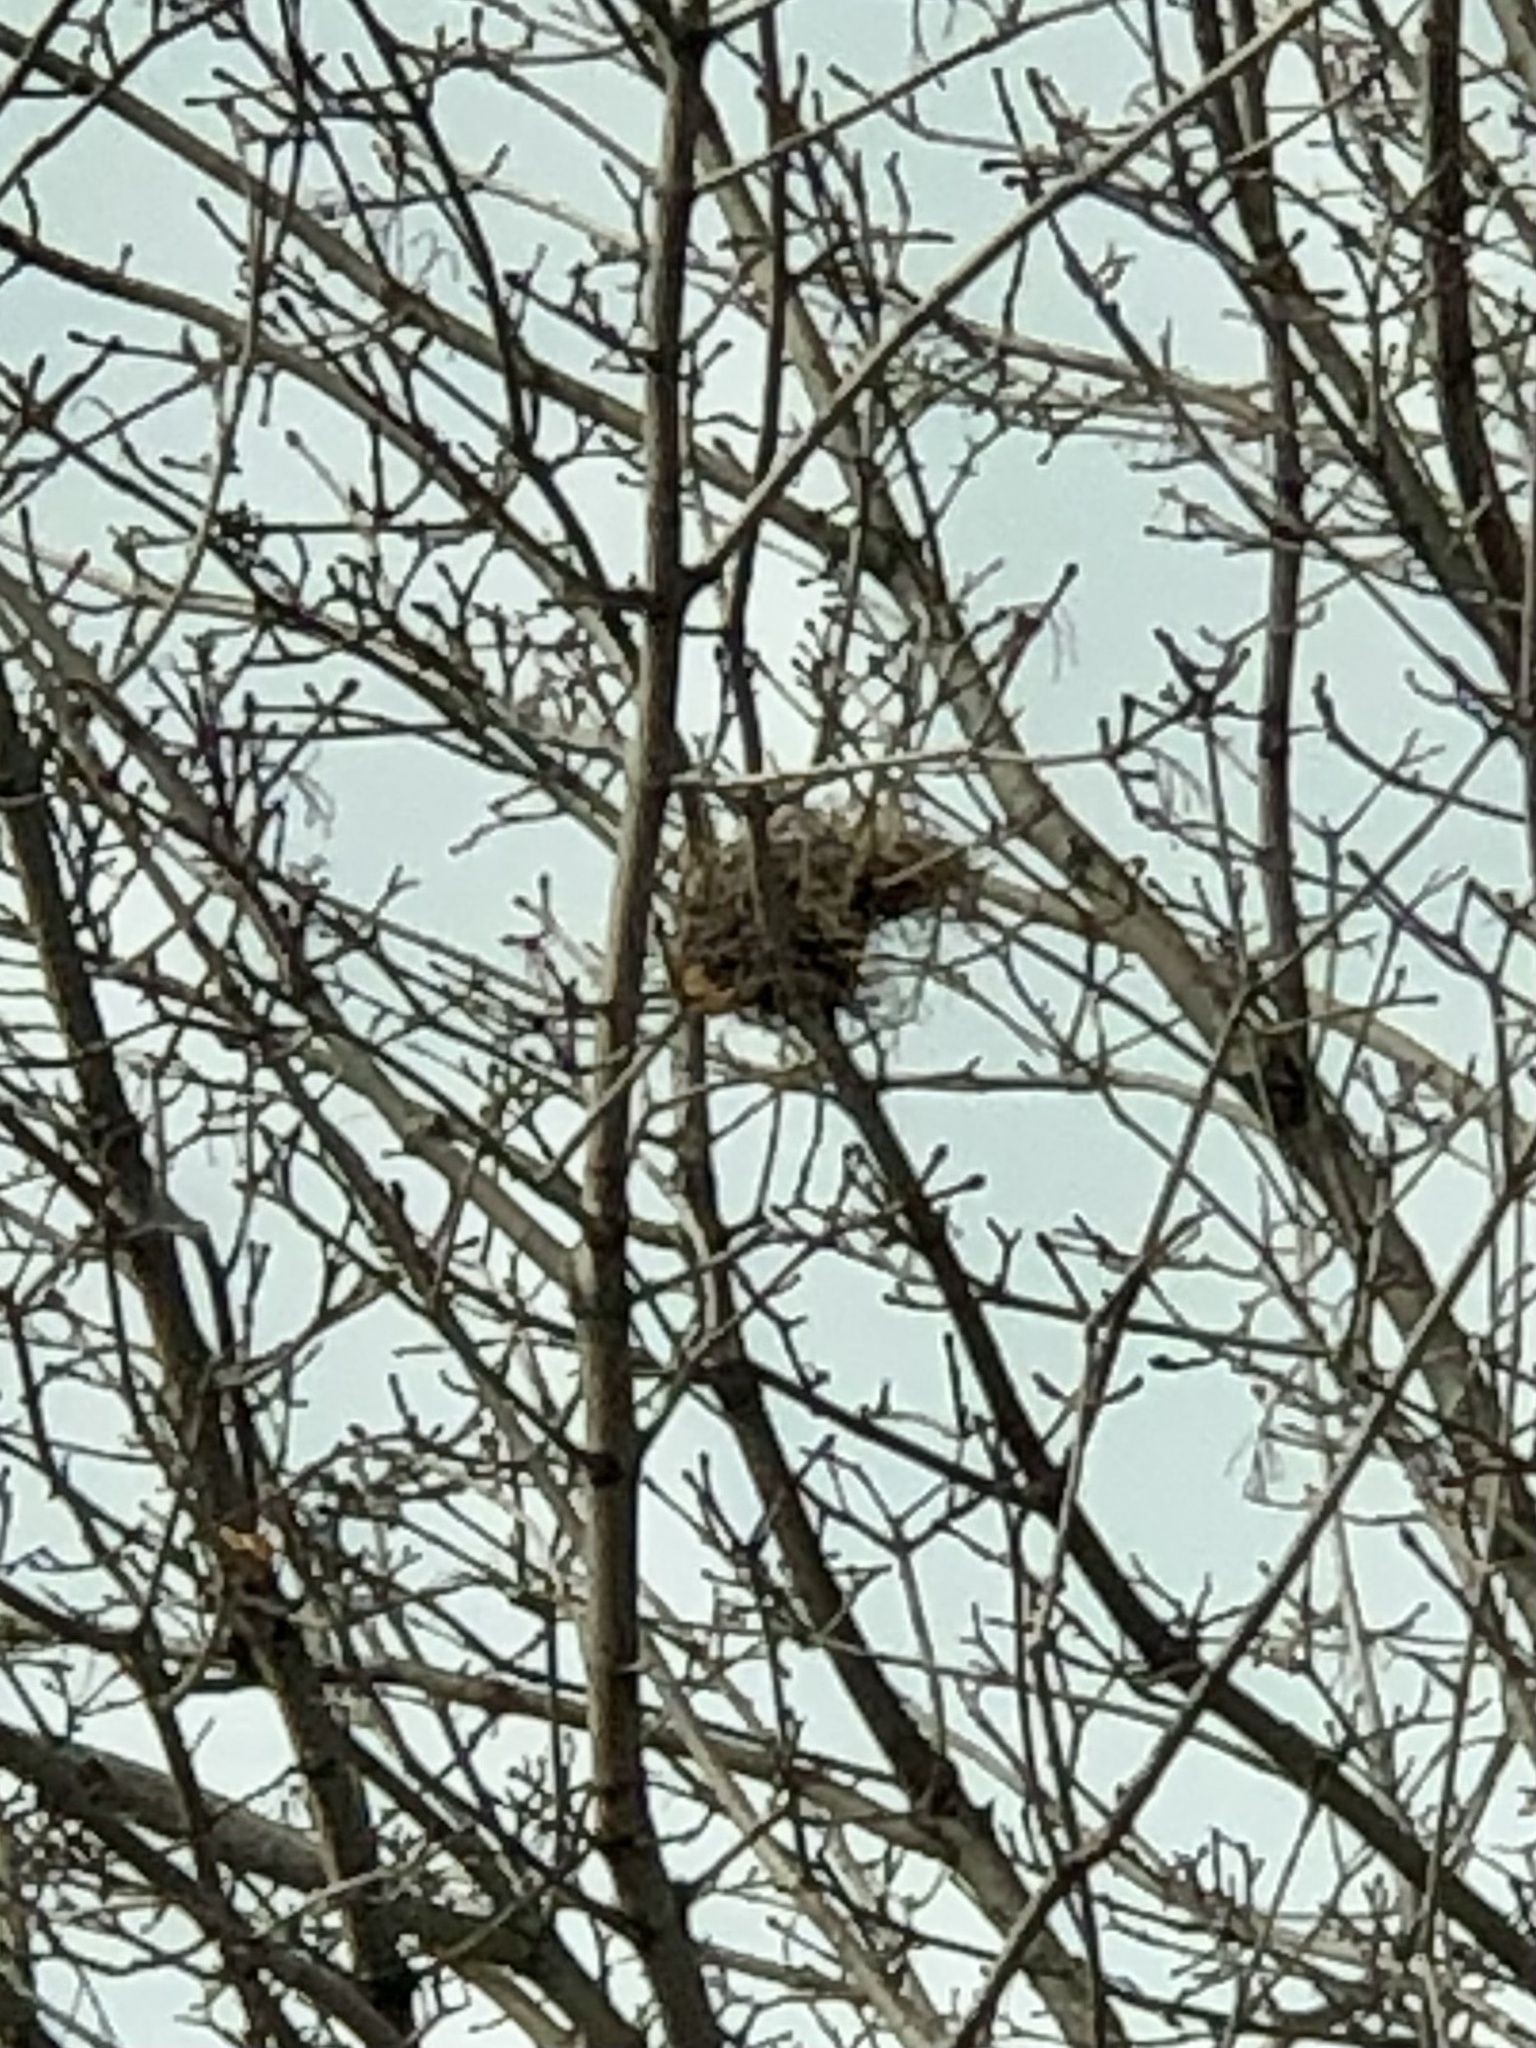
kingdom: Animalia
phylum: Chordata
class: Mammalia
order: Rodentia
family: Sciuridae
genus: Sciurus
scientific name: Sciurus carolinensis
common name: Eastern gray squirrel
